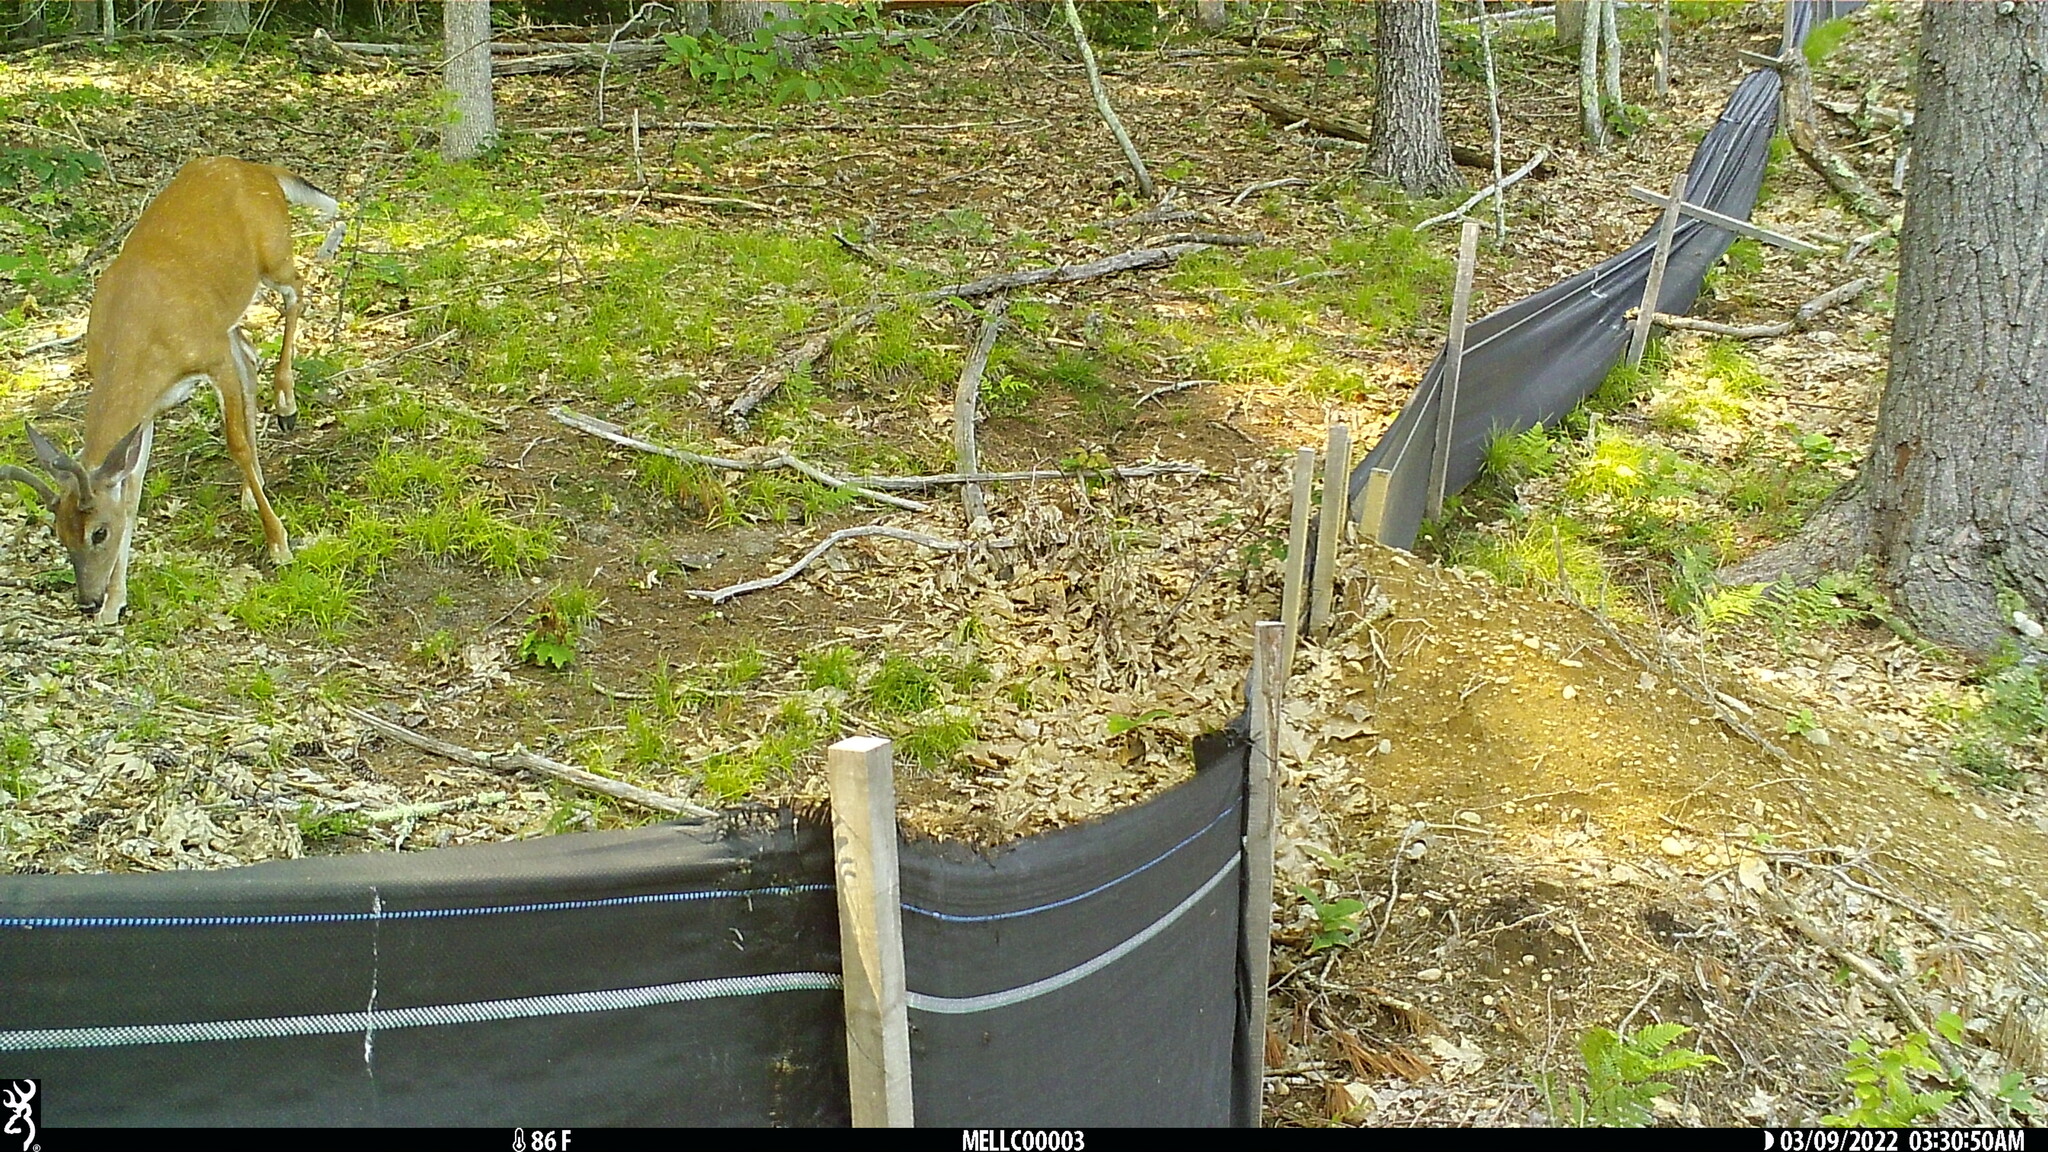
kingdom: Animalia
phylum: Chordata
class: Mammalia
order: Artiodactyla
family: Cervidae
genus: Odocoileus
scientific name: Odocoileus virginianus
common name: White-tailed deer
